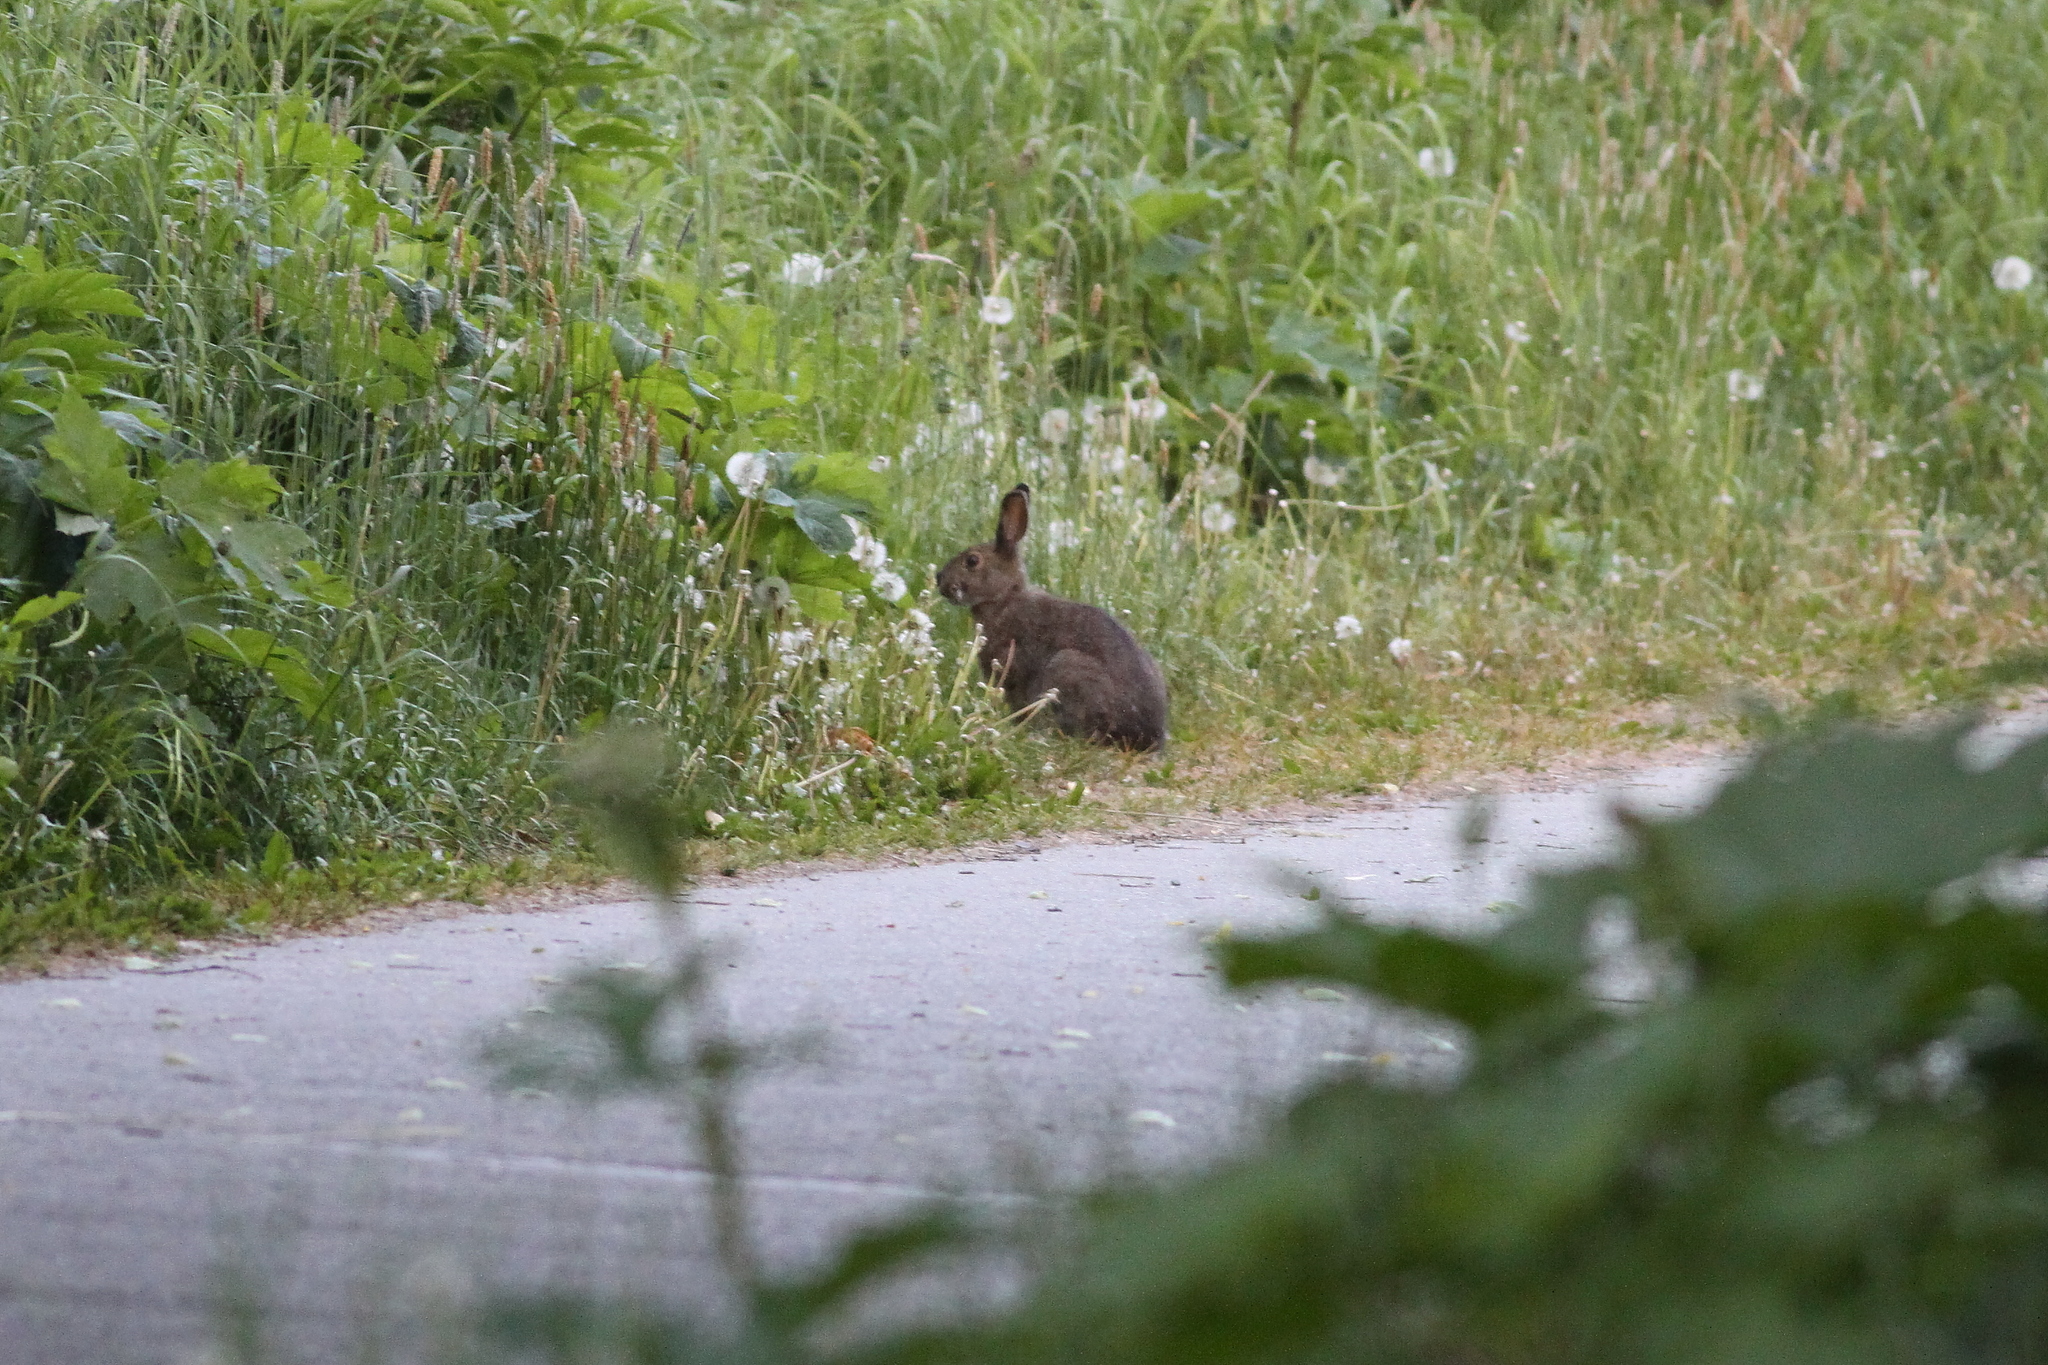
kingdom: Animalia
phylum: Chordata
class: Mammalia
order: Lagomorpha
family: Leporidae
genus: Lepus
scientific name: Lepus americanus
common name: Snowshoe hare
